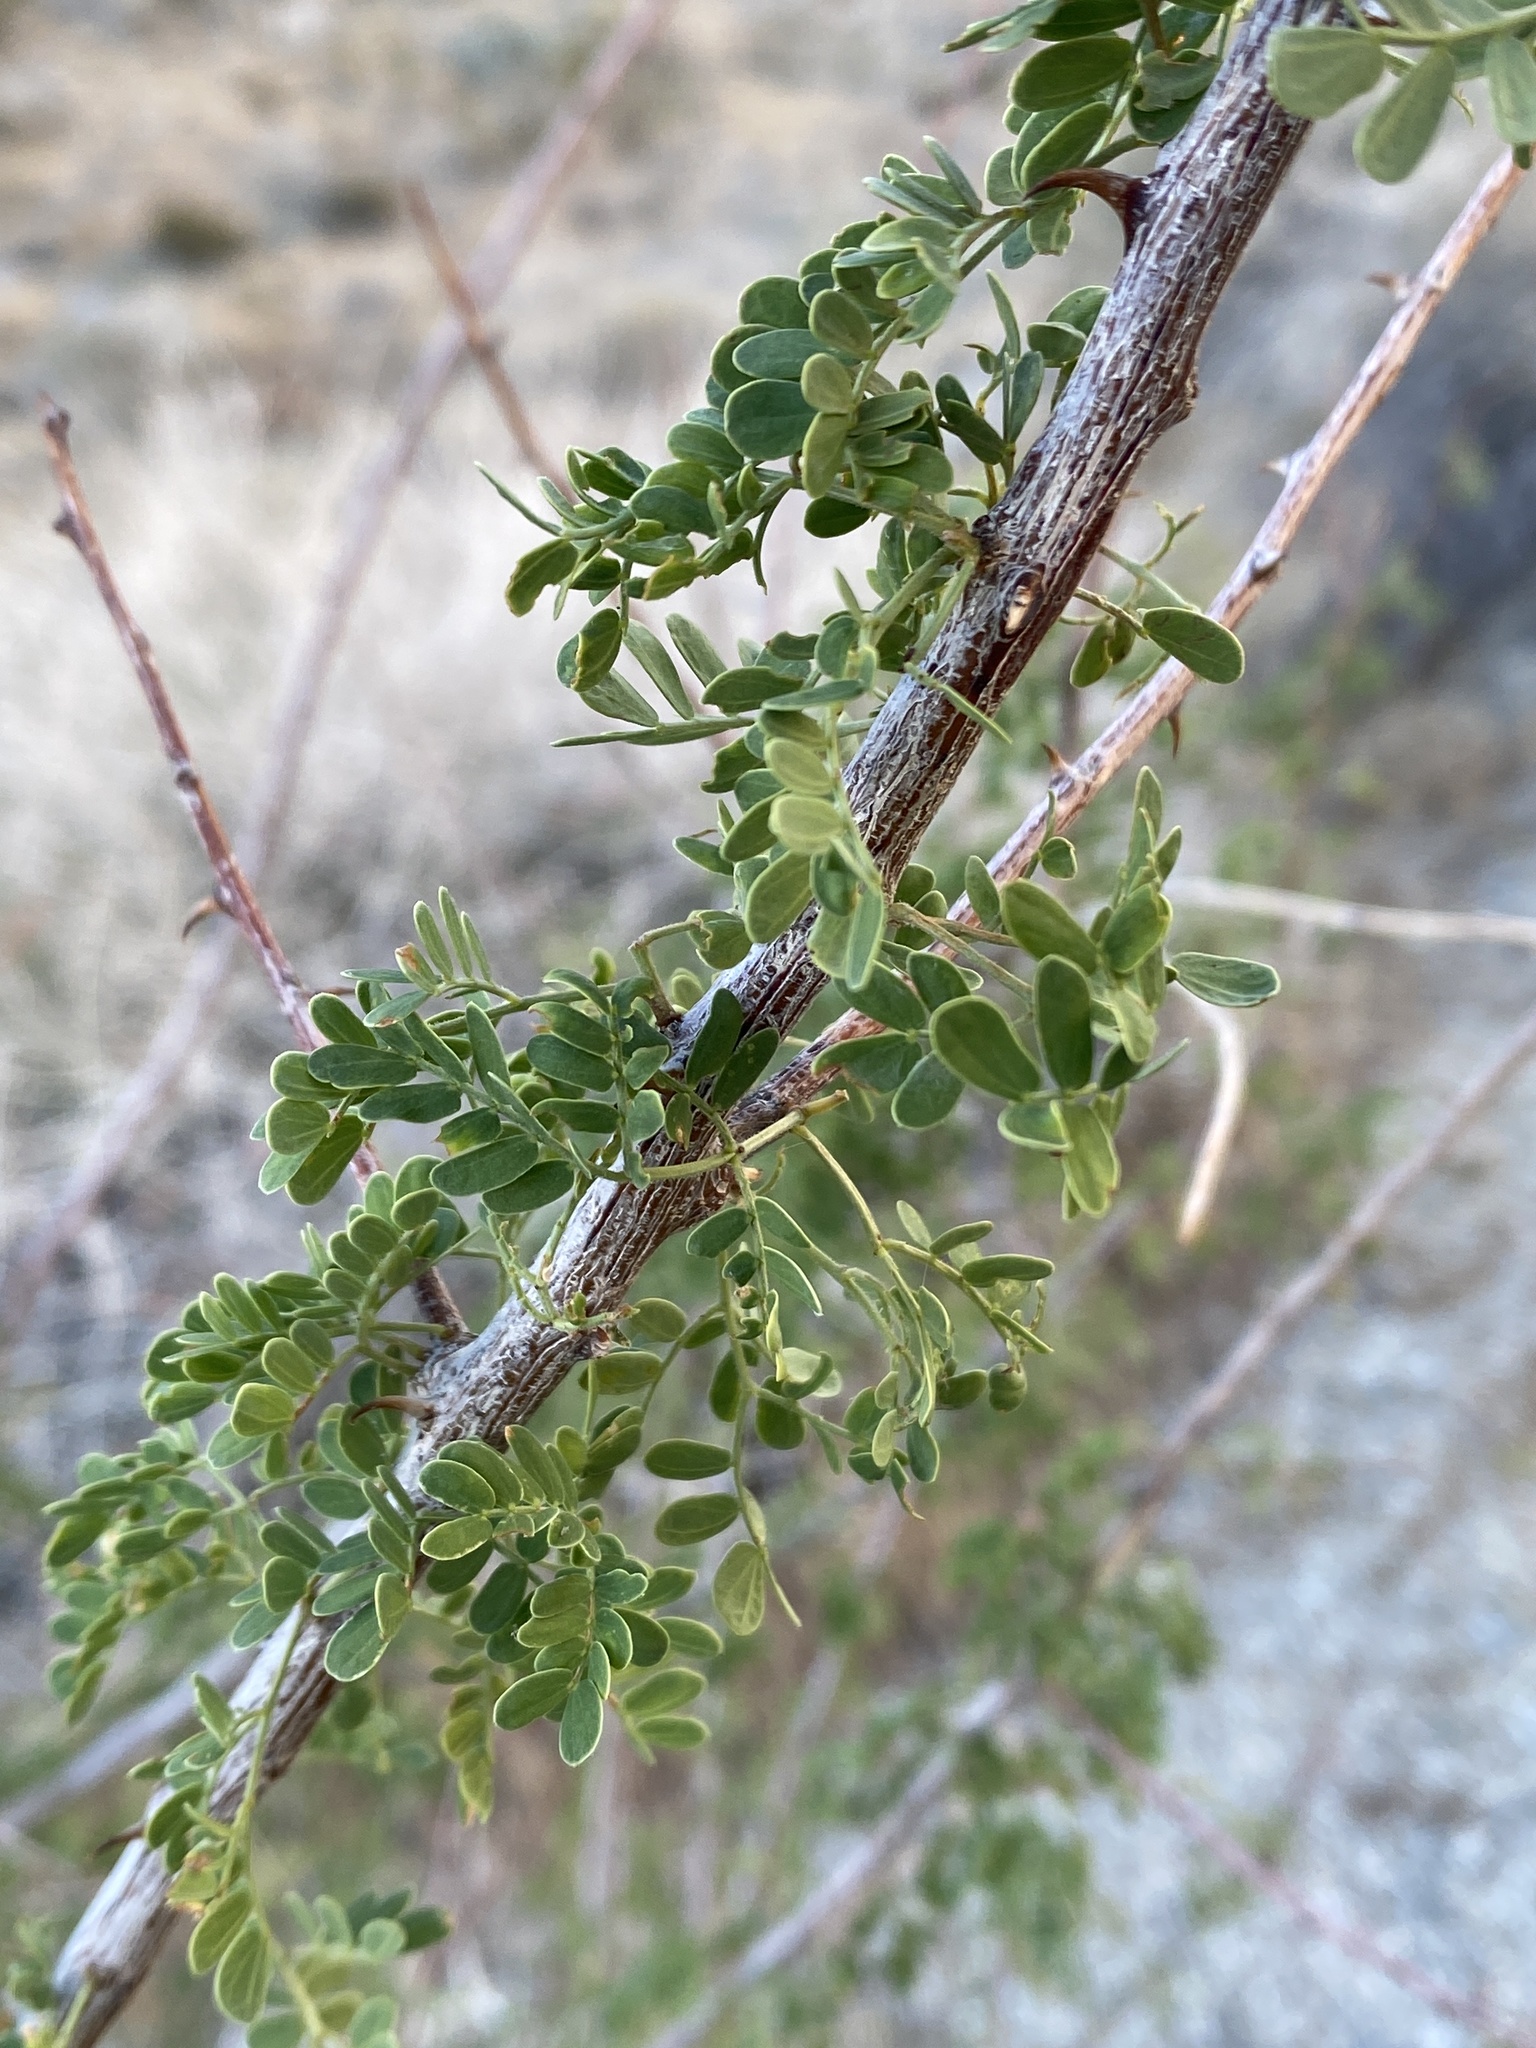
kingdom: Plantae
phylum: Tracheophyta
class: Magnoliopsida
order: Fabales
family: Fabaceae
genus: Senegalia
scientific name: Senegalia greggii
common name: Texas-mimosa
